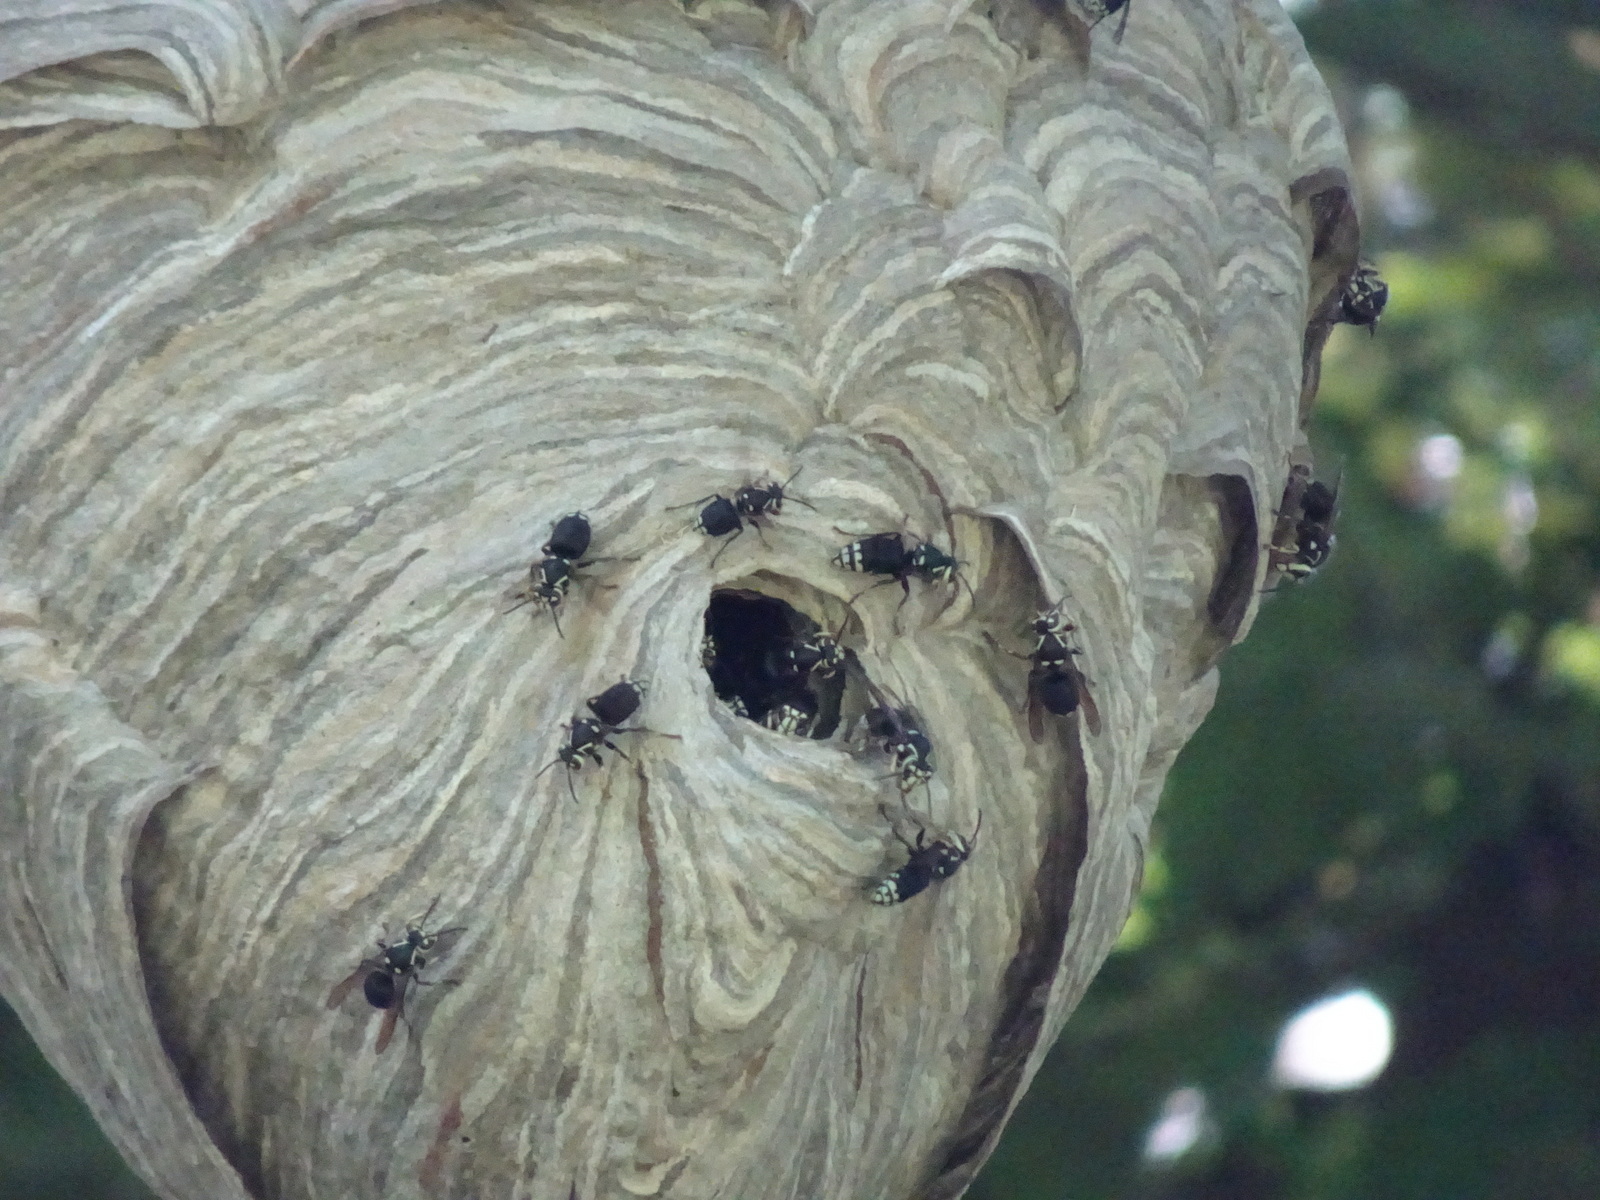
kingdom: Animalia
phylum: Arthropoda
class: Insecta
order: Hymenoptera
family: Vespidae
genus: Dolichovespula
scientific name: Dolichovespula maculata
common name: Bald-faced hornet
